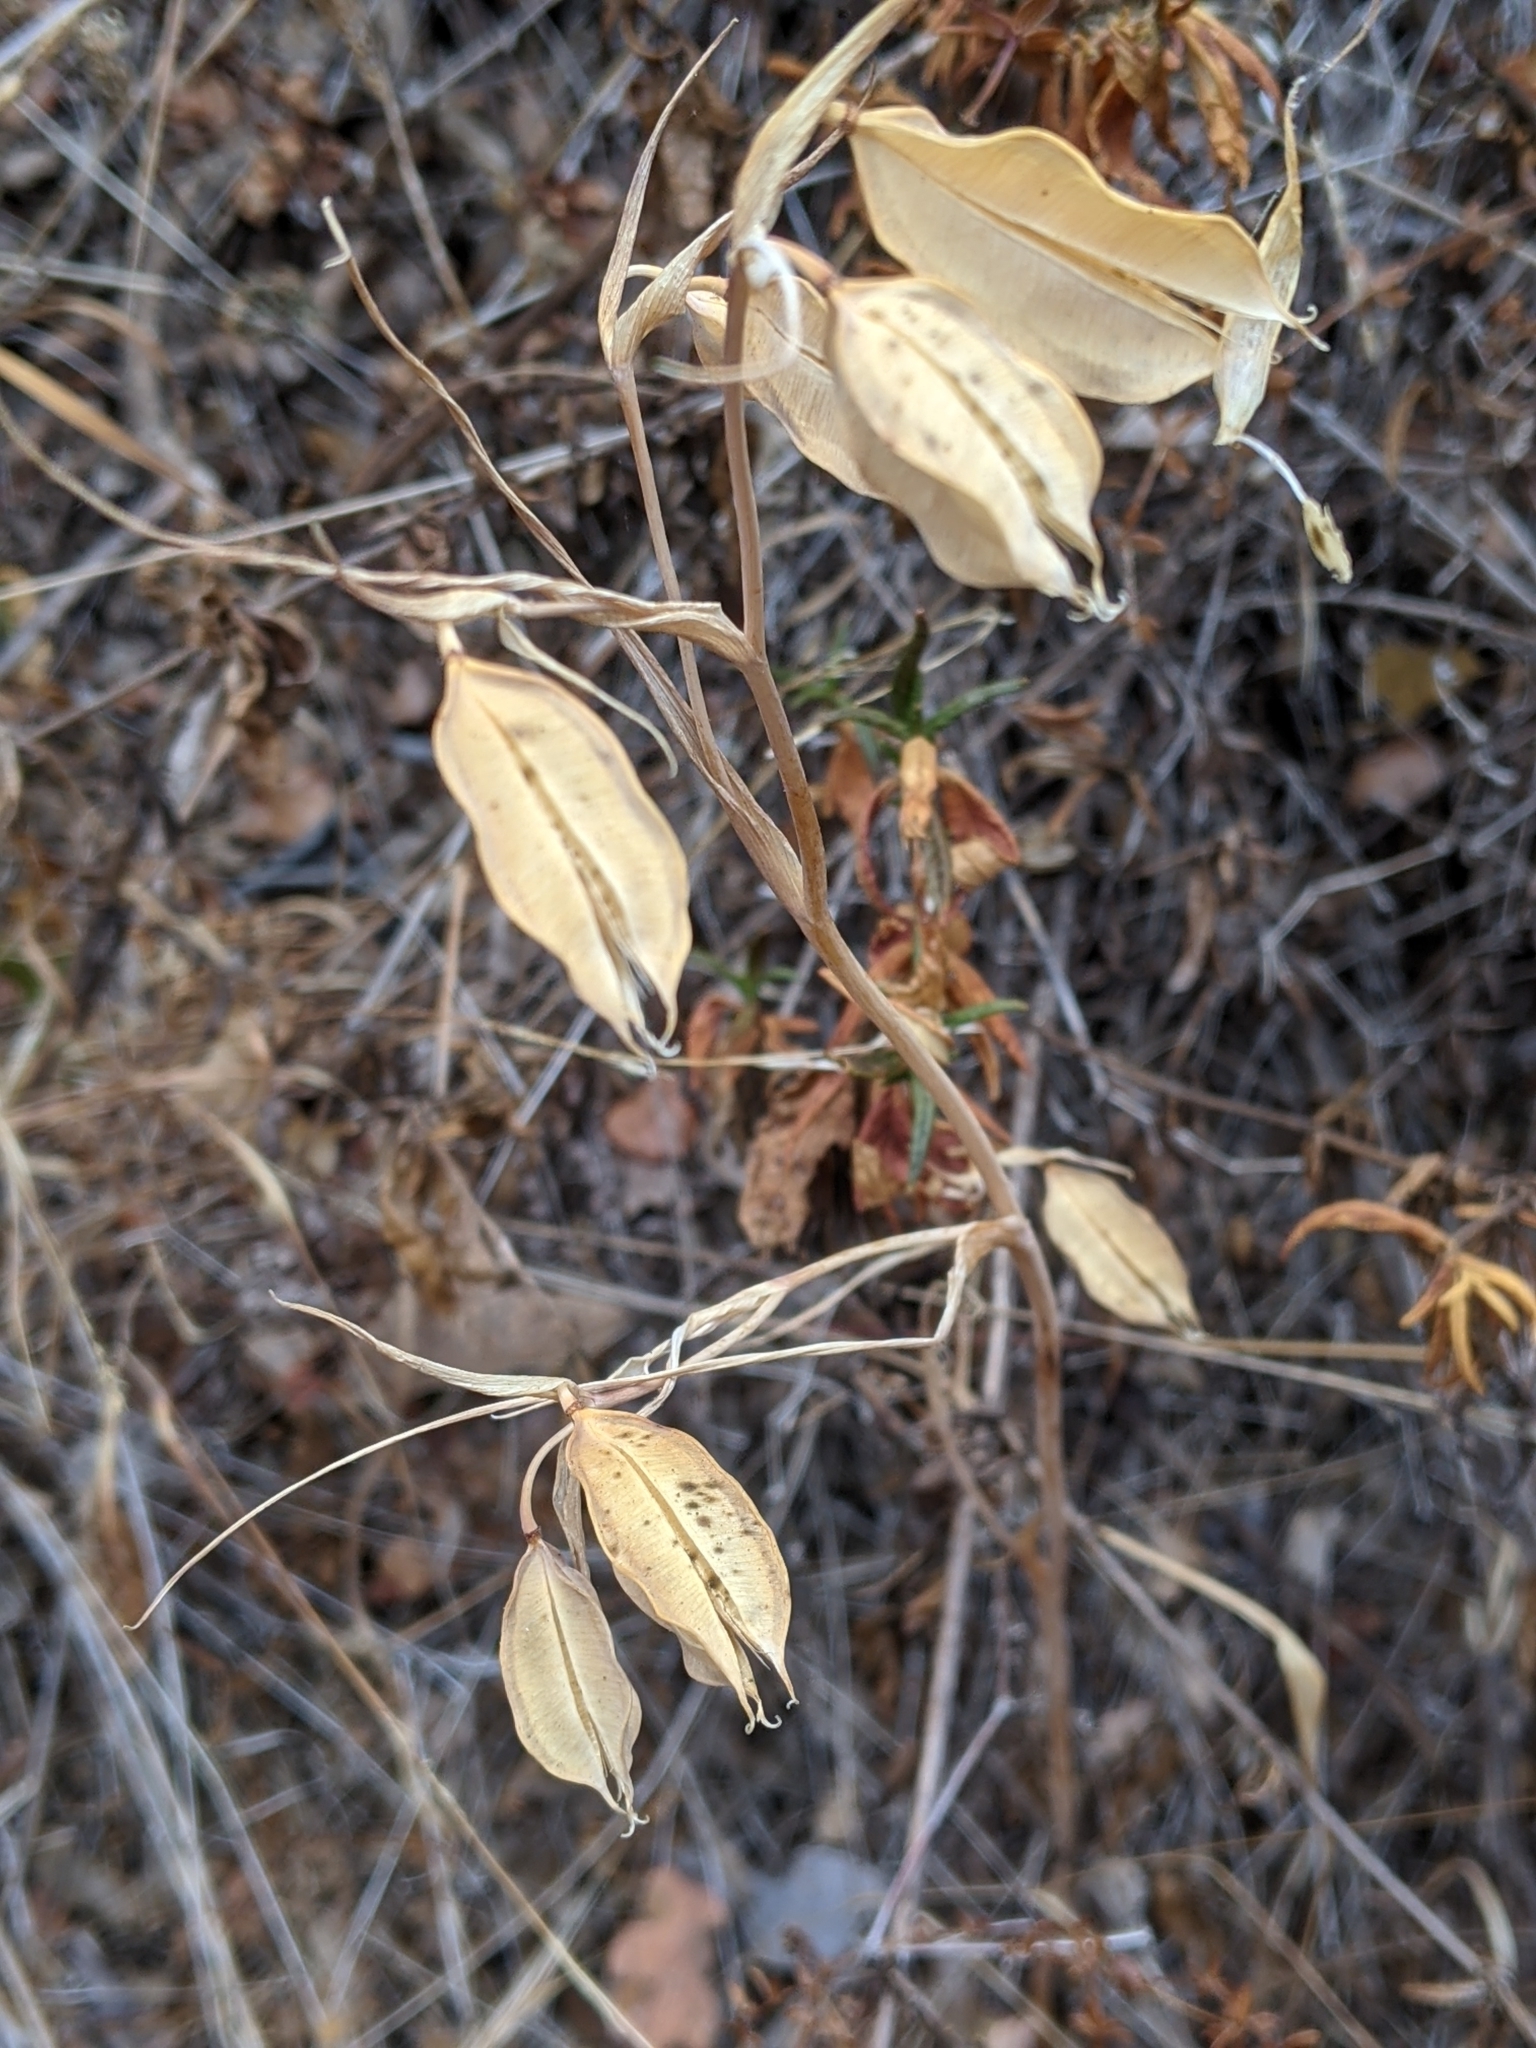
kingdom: Plantae
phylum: Tracheophyta
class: Liliopsida
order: Liliales
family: Liliaceae
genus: Calochortus
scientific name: Calochortus albus
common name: Fairy-lantern
